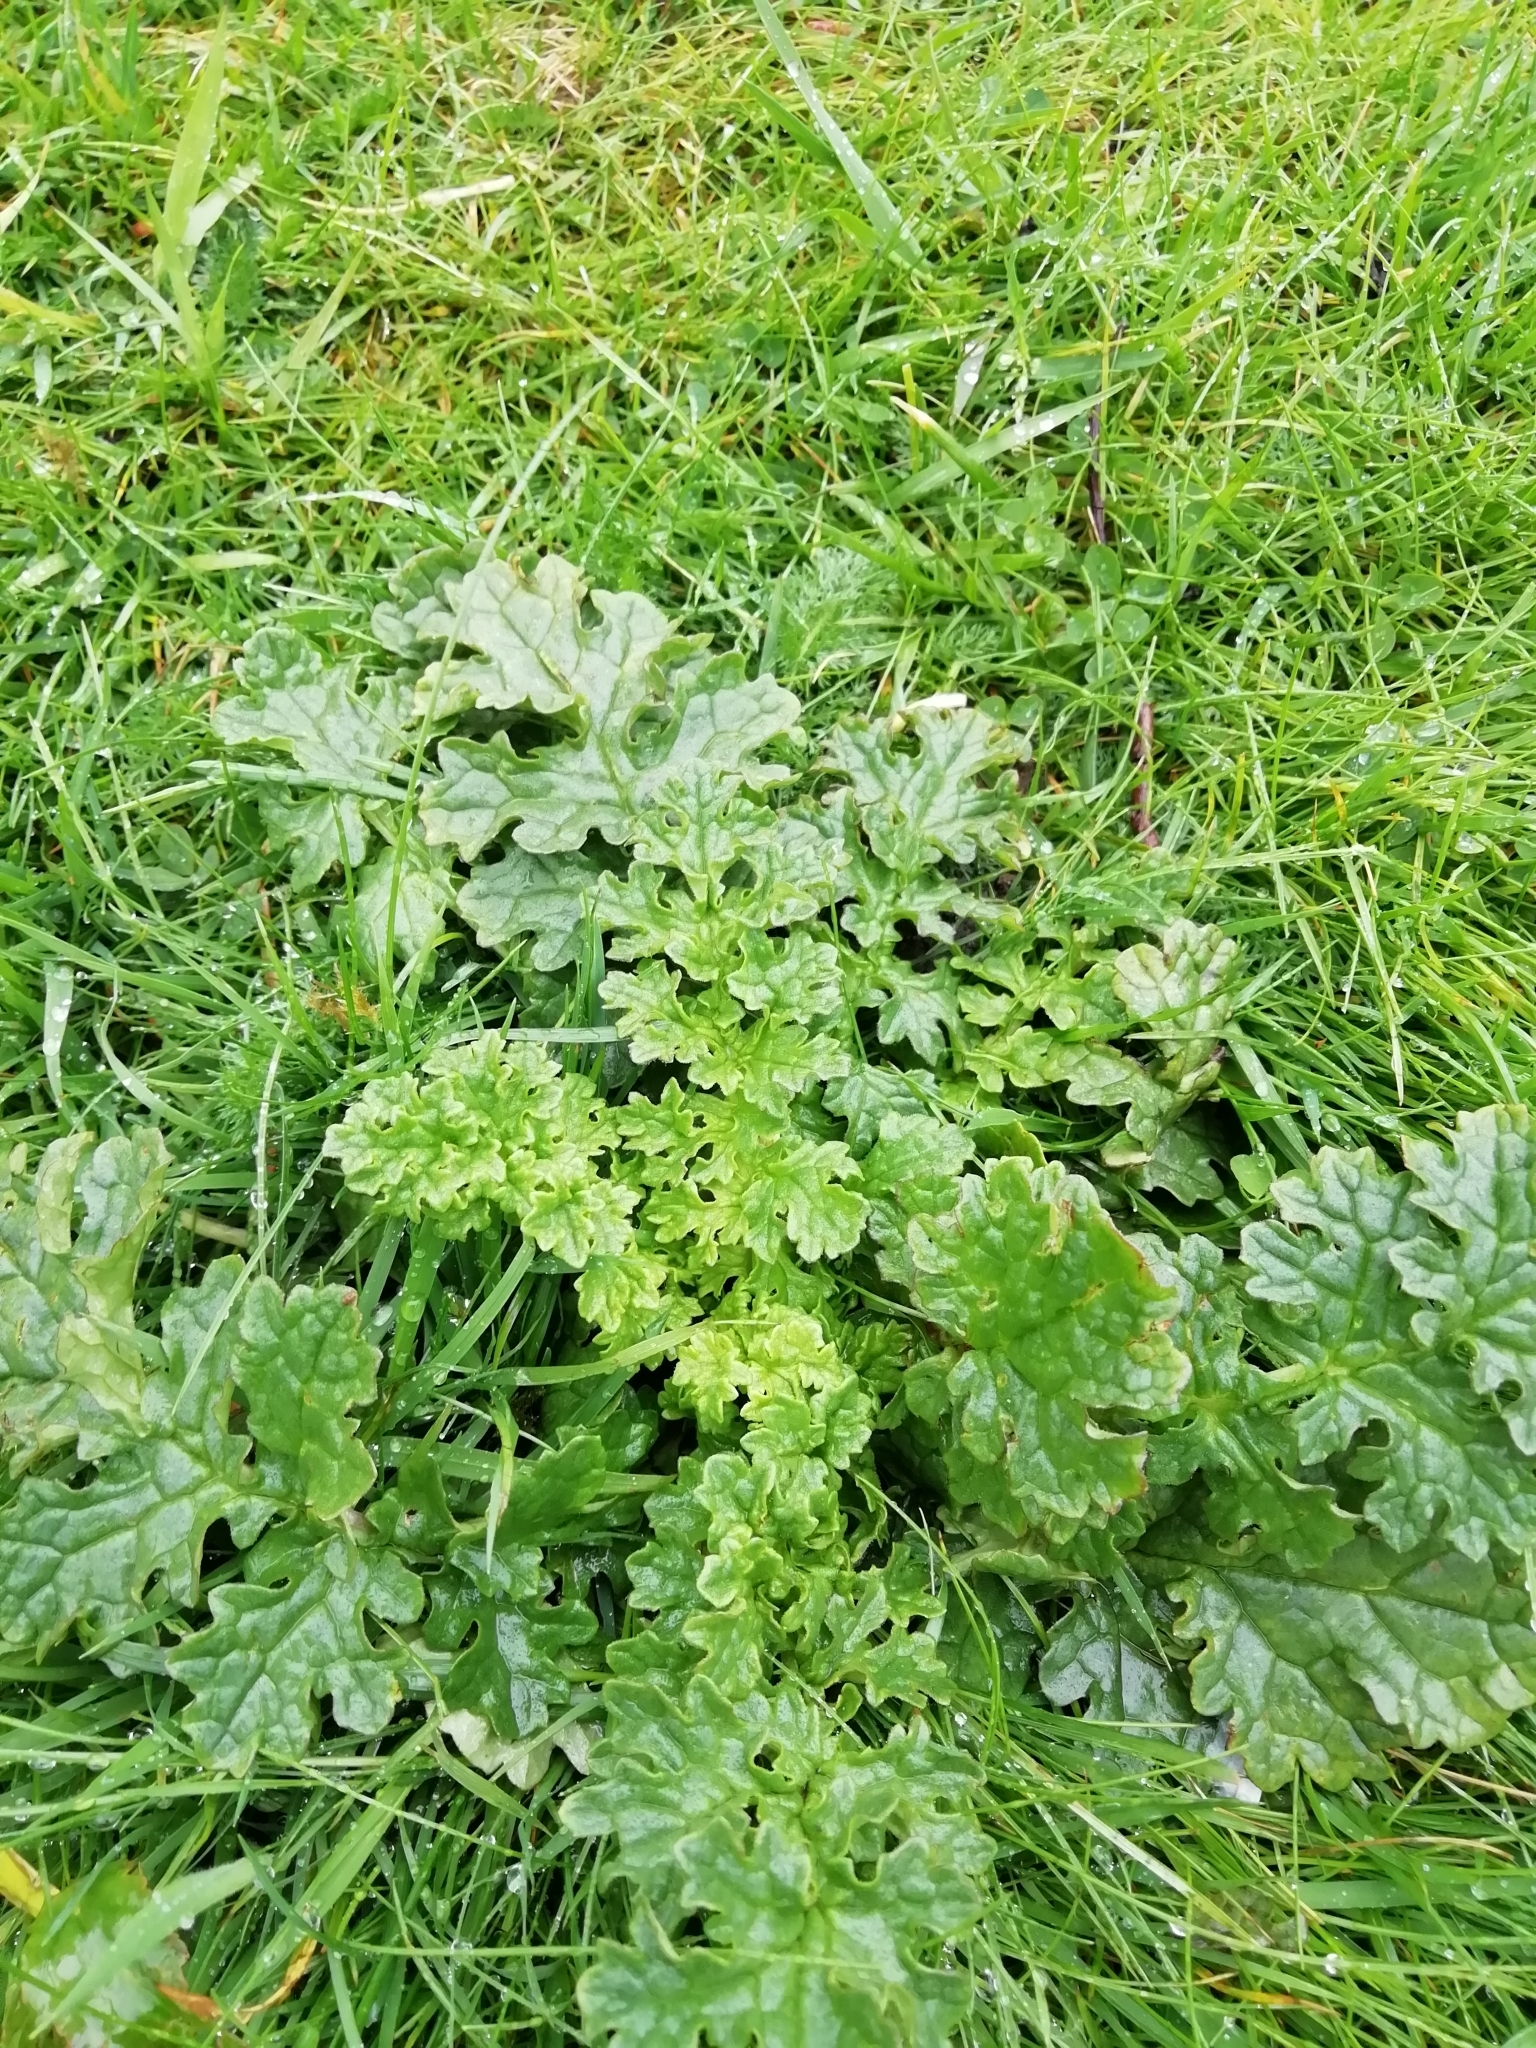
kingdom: Plantae
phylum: Tracheophyta
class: Magnoliopsida
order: Asterales
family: Asteraceae
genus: Jacobaea
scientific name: Jacobaea vulgaris
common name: Stinking willie
